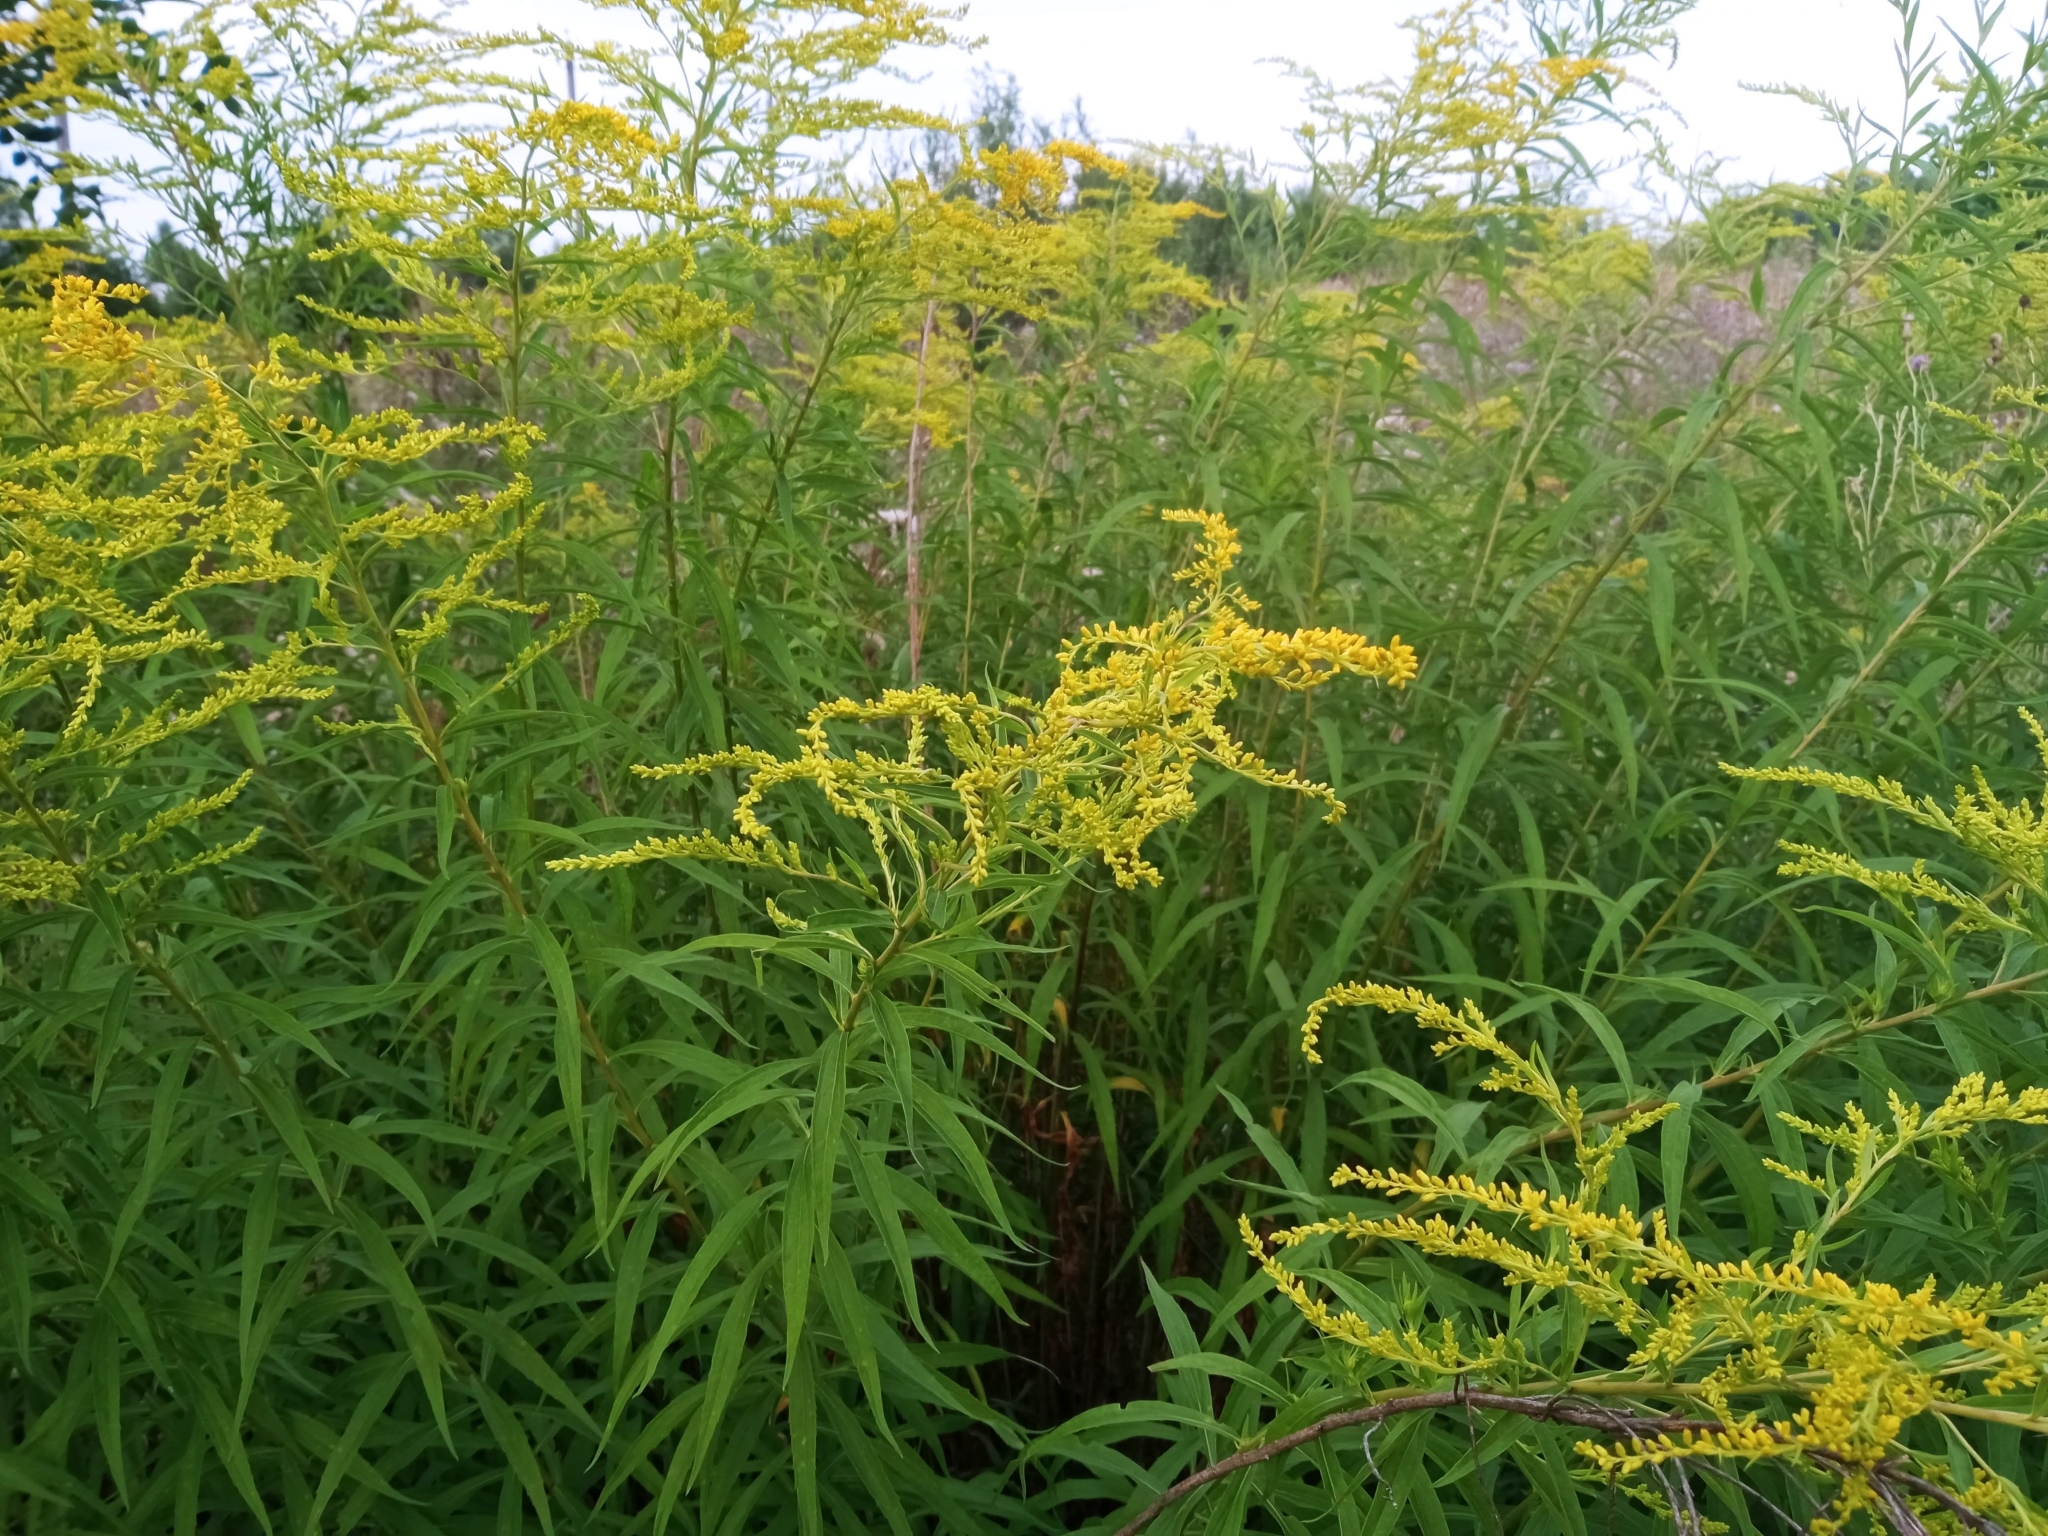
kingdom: Plantae
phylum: Tracheophyta
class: Magnoliopsida
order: Asterales
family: Asteraceae
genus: Solidago
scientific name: Solidago canadensis
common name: Canada goldenrod
